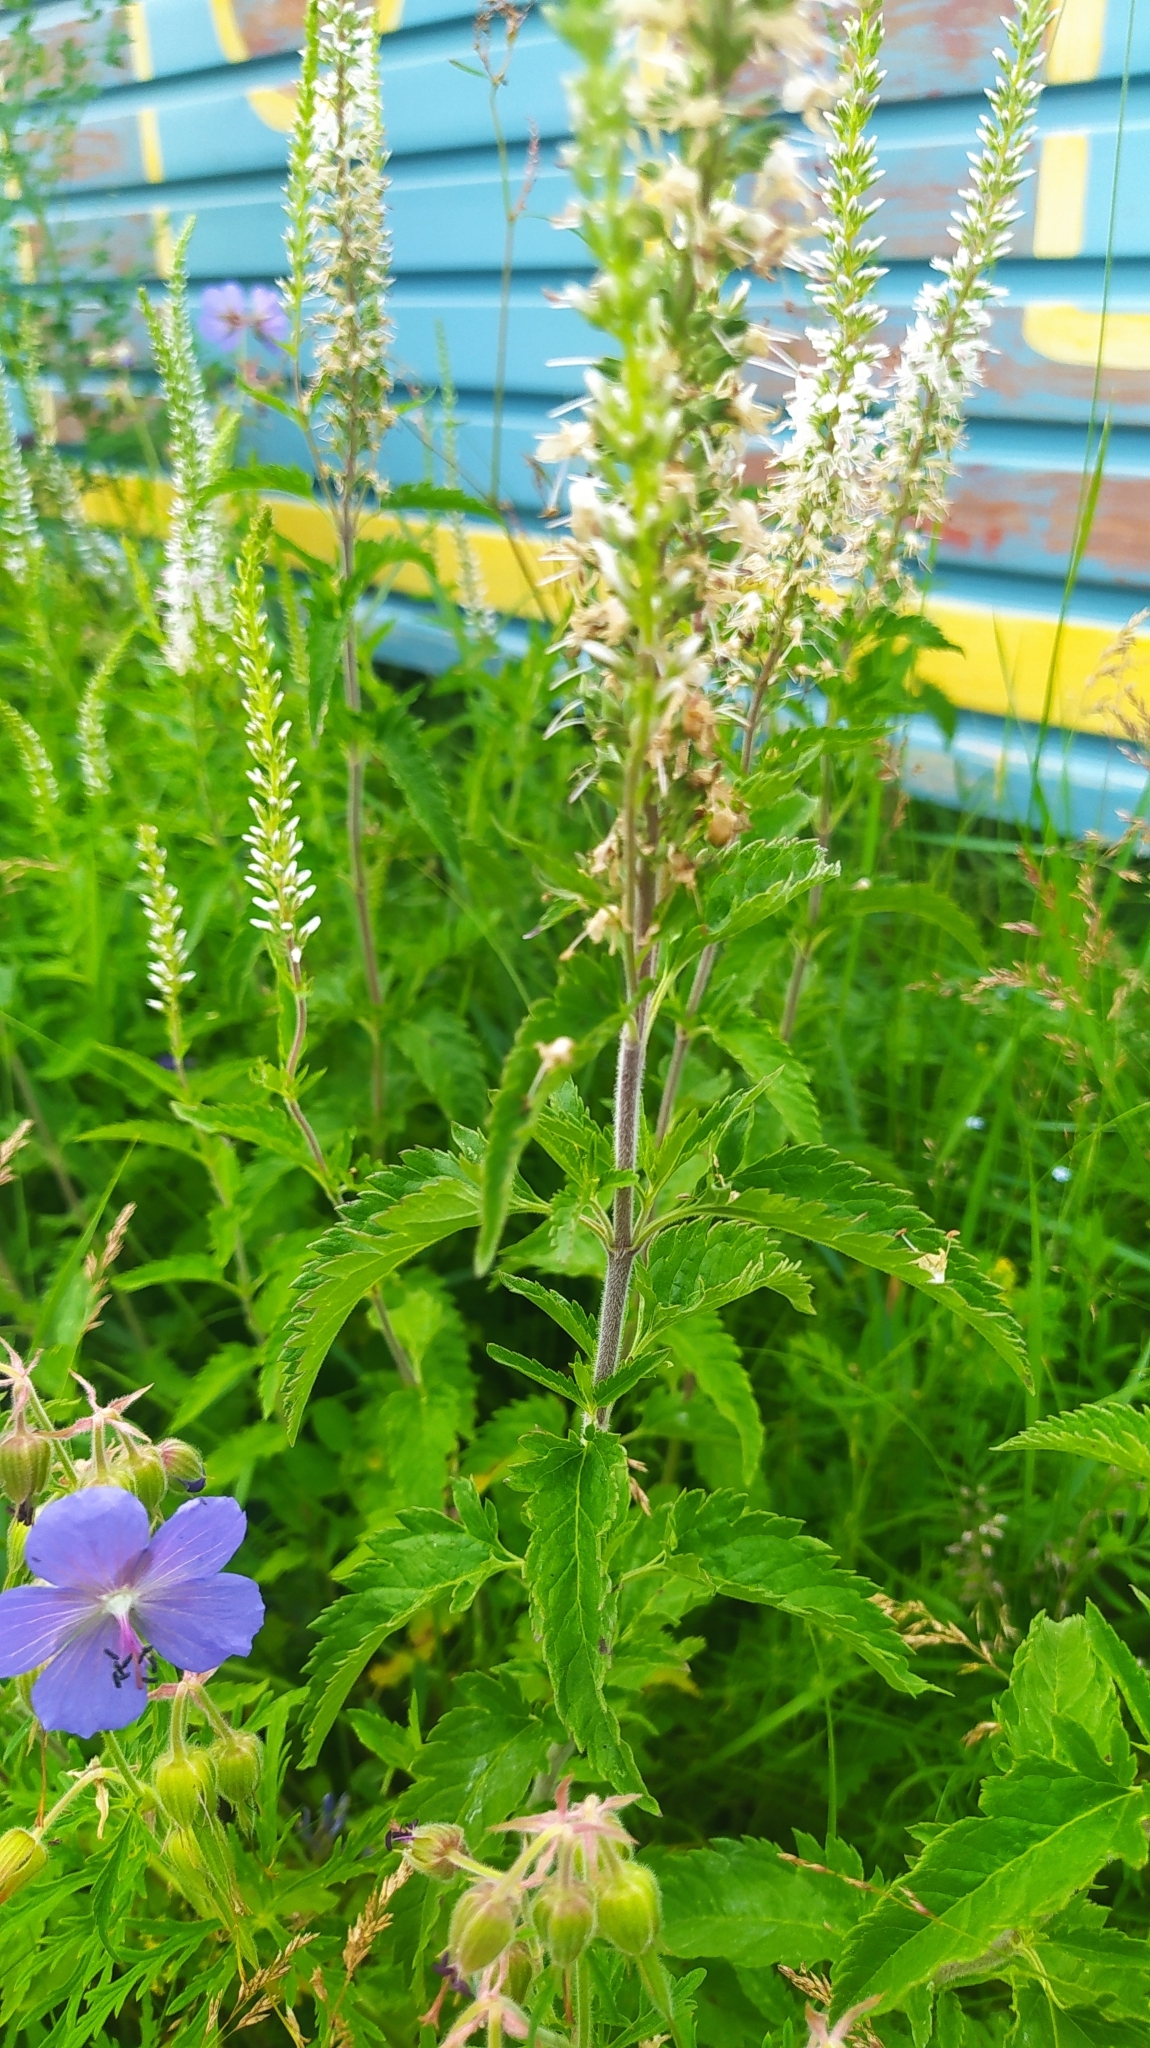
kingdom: Plantae
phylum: Tracheophyta
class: Magnoliopsida
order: Lamiales
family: Plantaginaceae
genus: Veronica
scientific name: Veronica daurica
